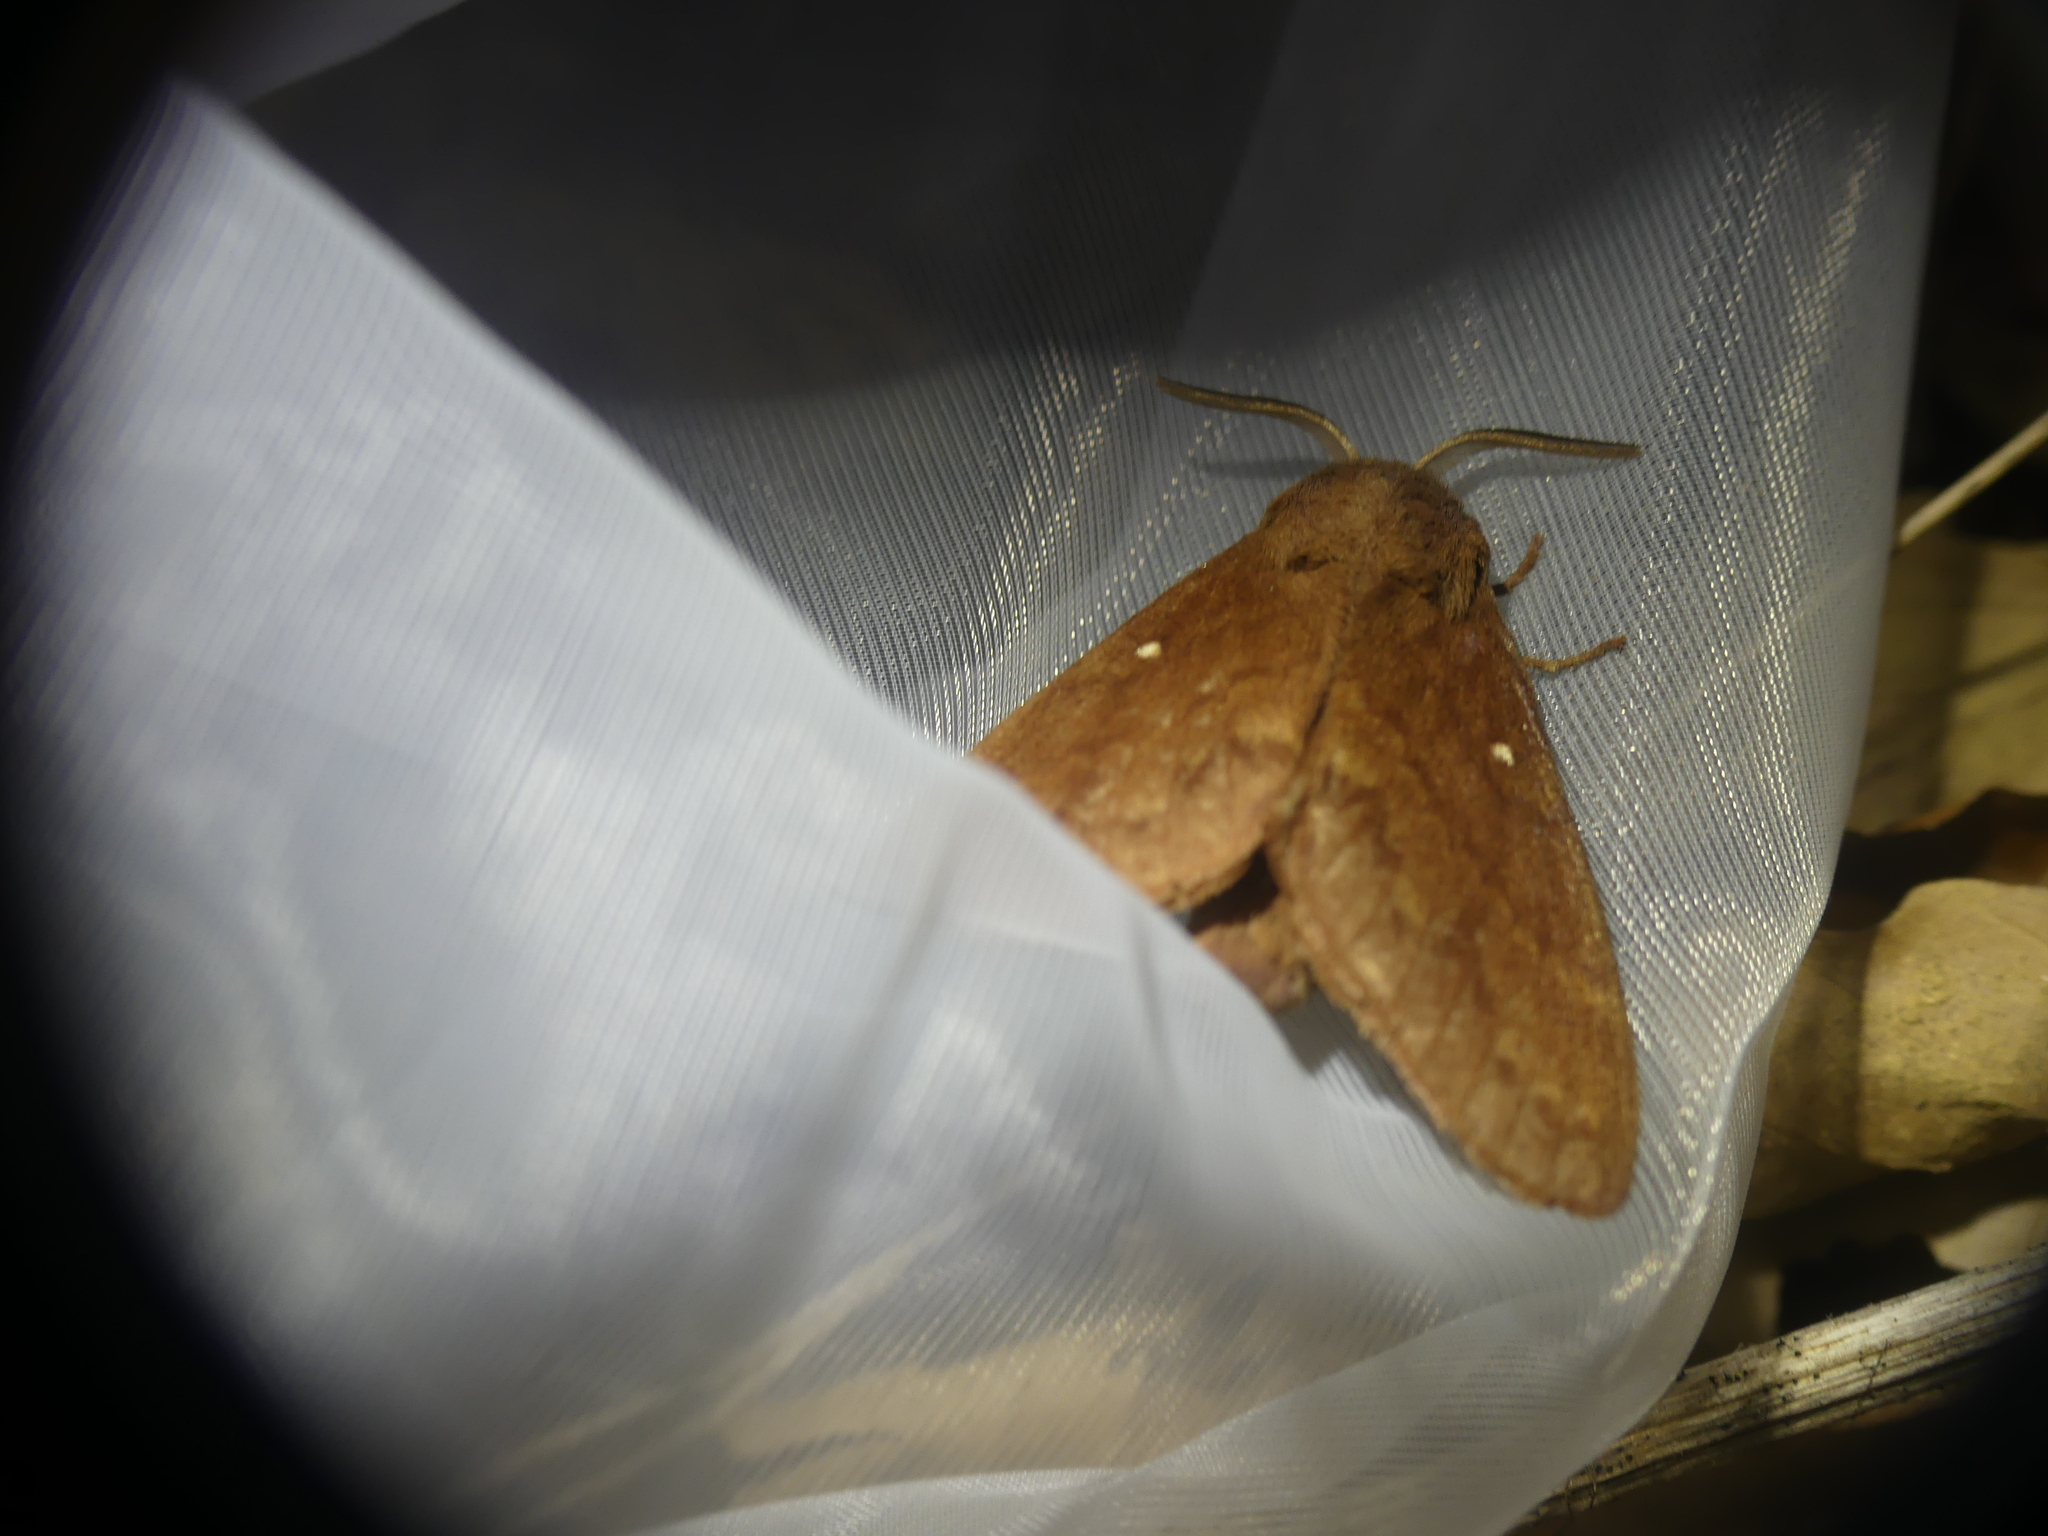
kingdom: Animalia
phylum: Arthropoda
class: Insecta
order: Lepidoptera
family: Lasiocampidae
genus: Dendrolimus
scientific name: Dendrolimus pini
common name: Pine-tree lappet
